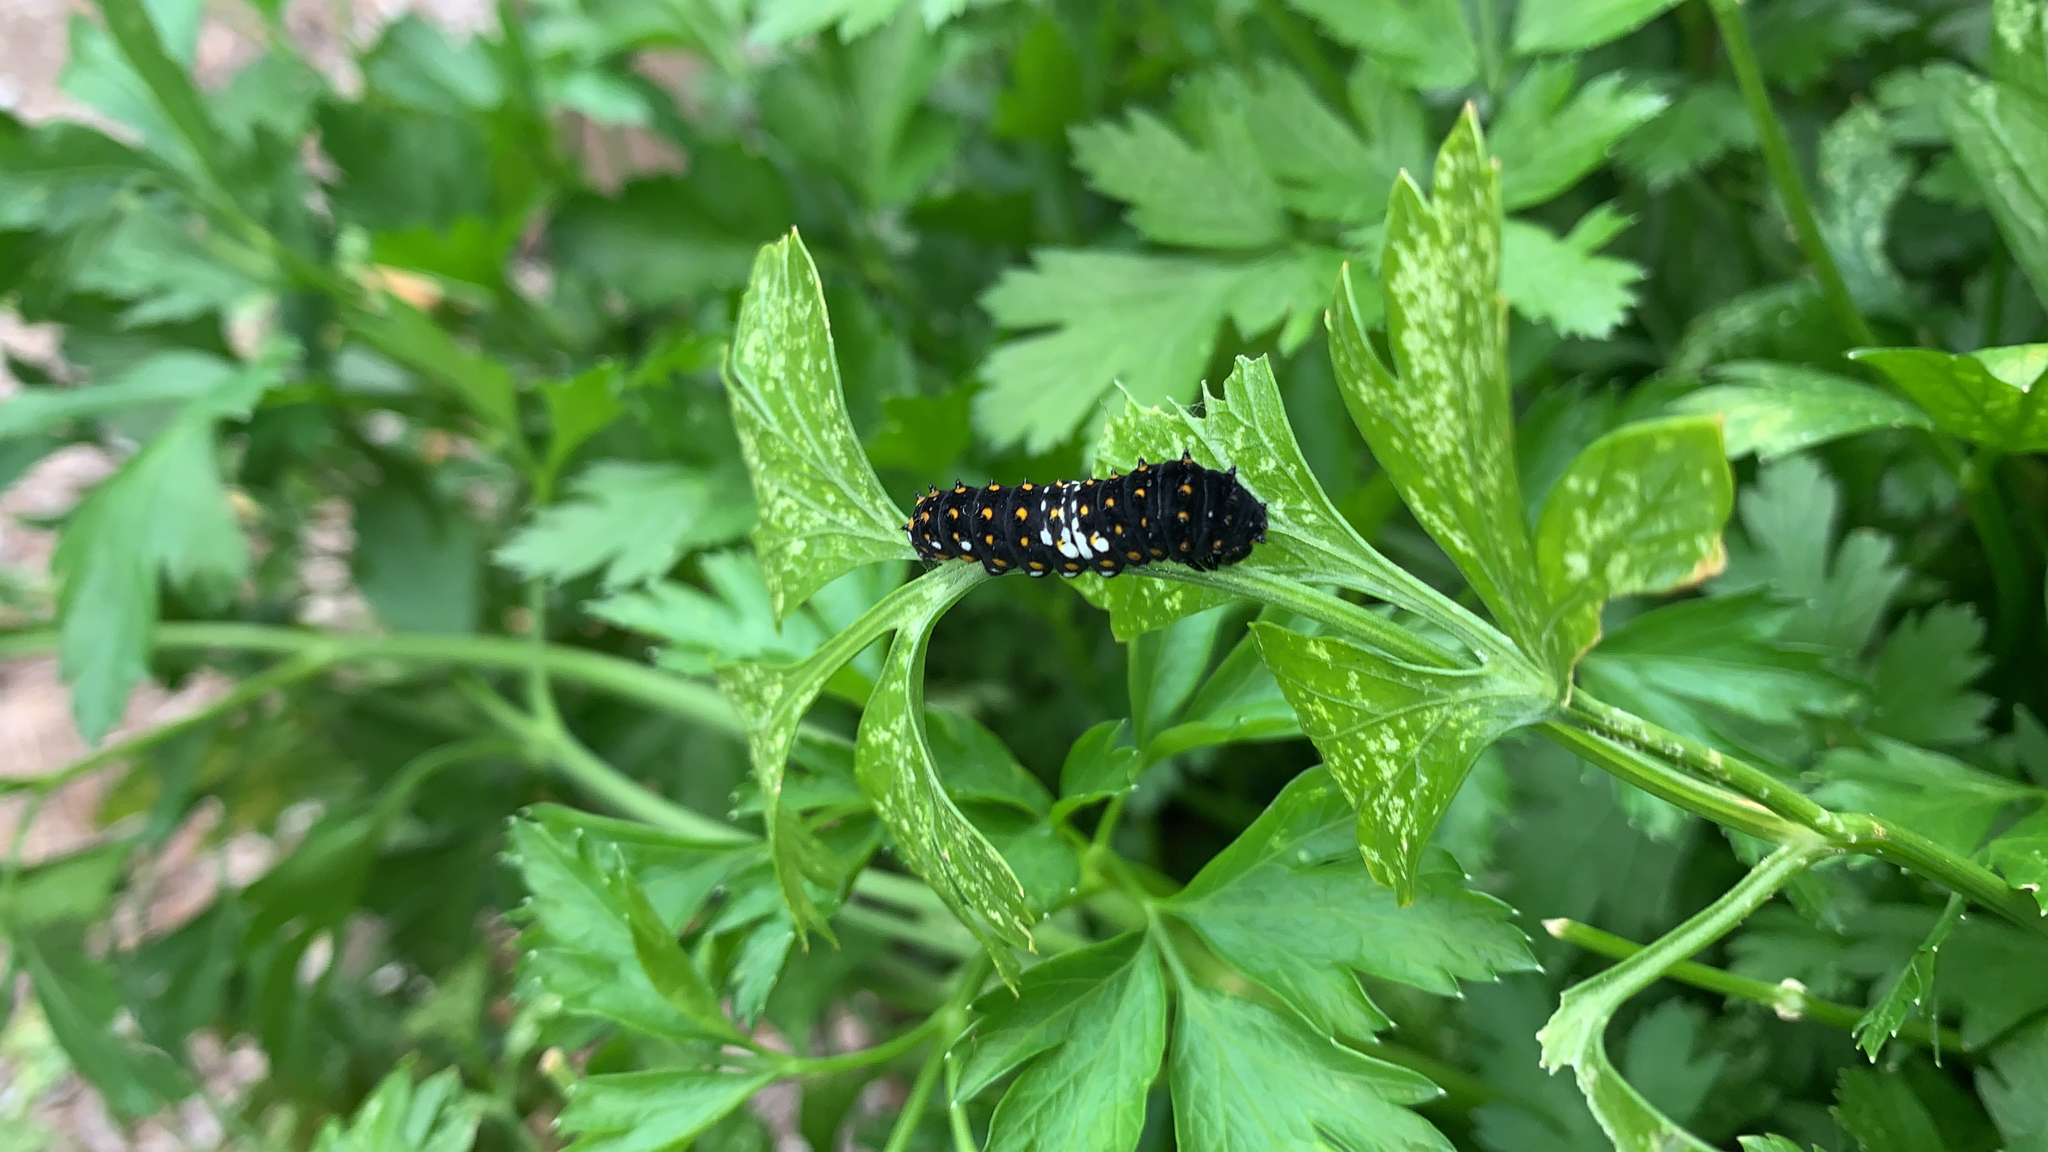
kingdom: Animalia
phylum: Arthropoda
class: Insecta
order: Lepidoptera
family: Papilionidae
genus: Papilio
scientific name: Papilio polyxenes
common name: Black swallowtail
